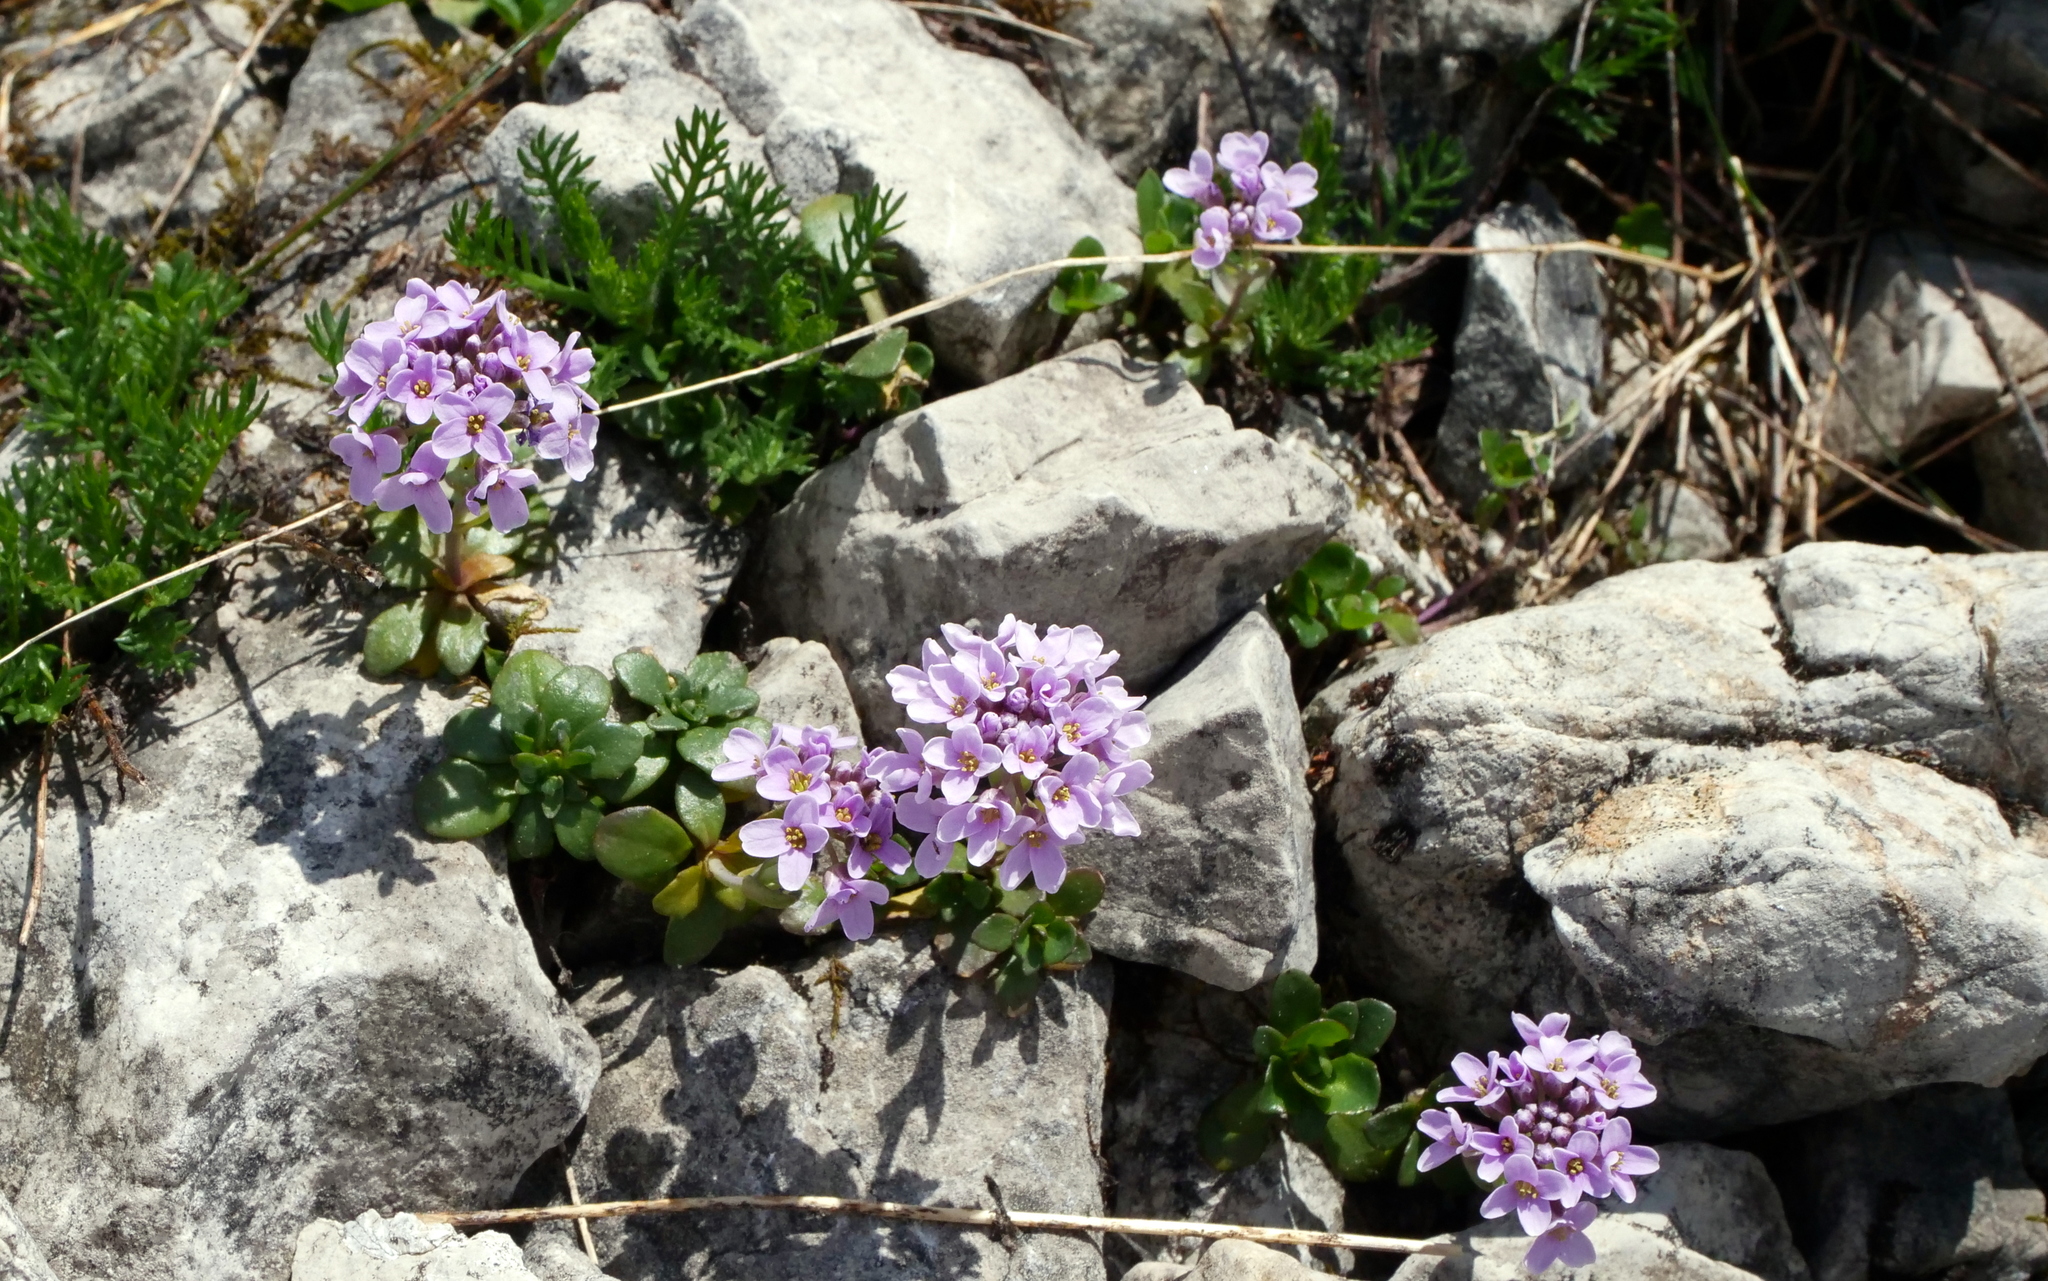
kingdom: Plantae
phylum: Tracheophyta
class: Magnoliopsida
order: Brassicales
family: Brassicaceae
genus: Noccaea
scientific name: Noccaea rotundifolia
